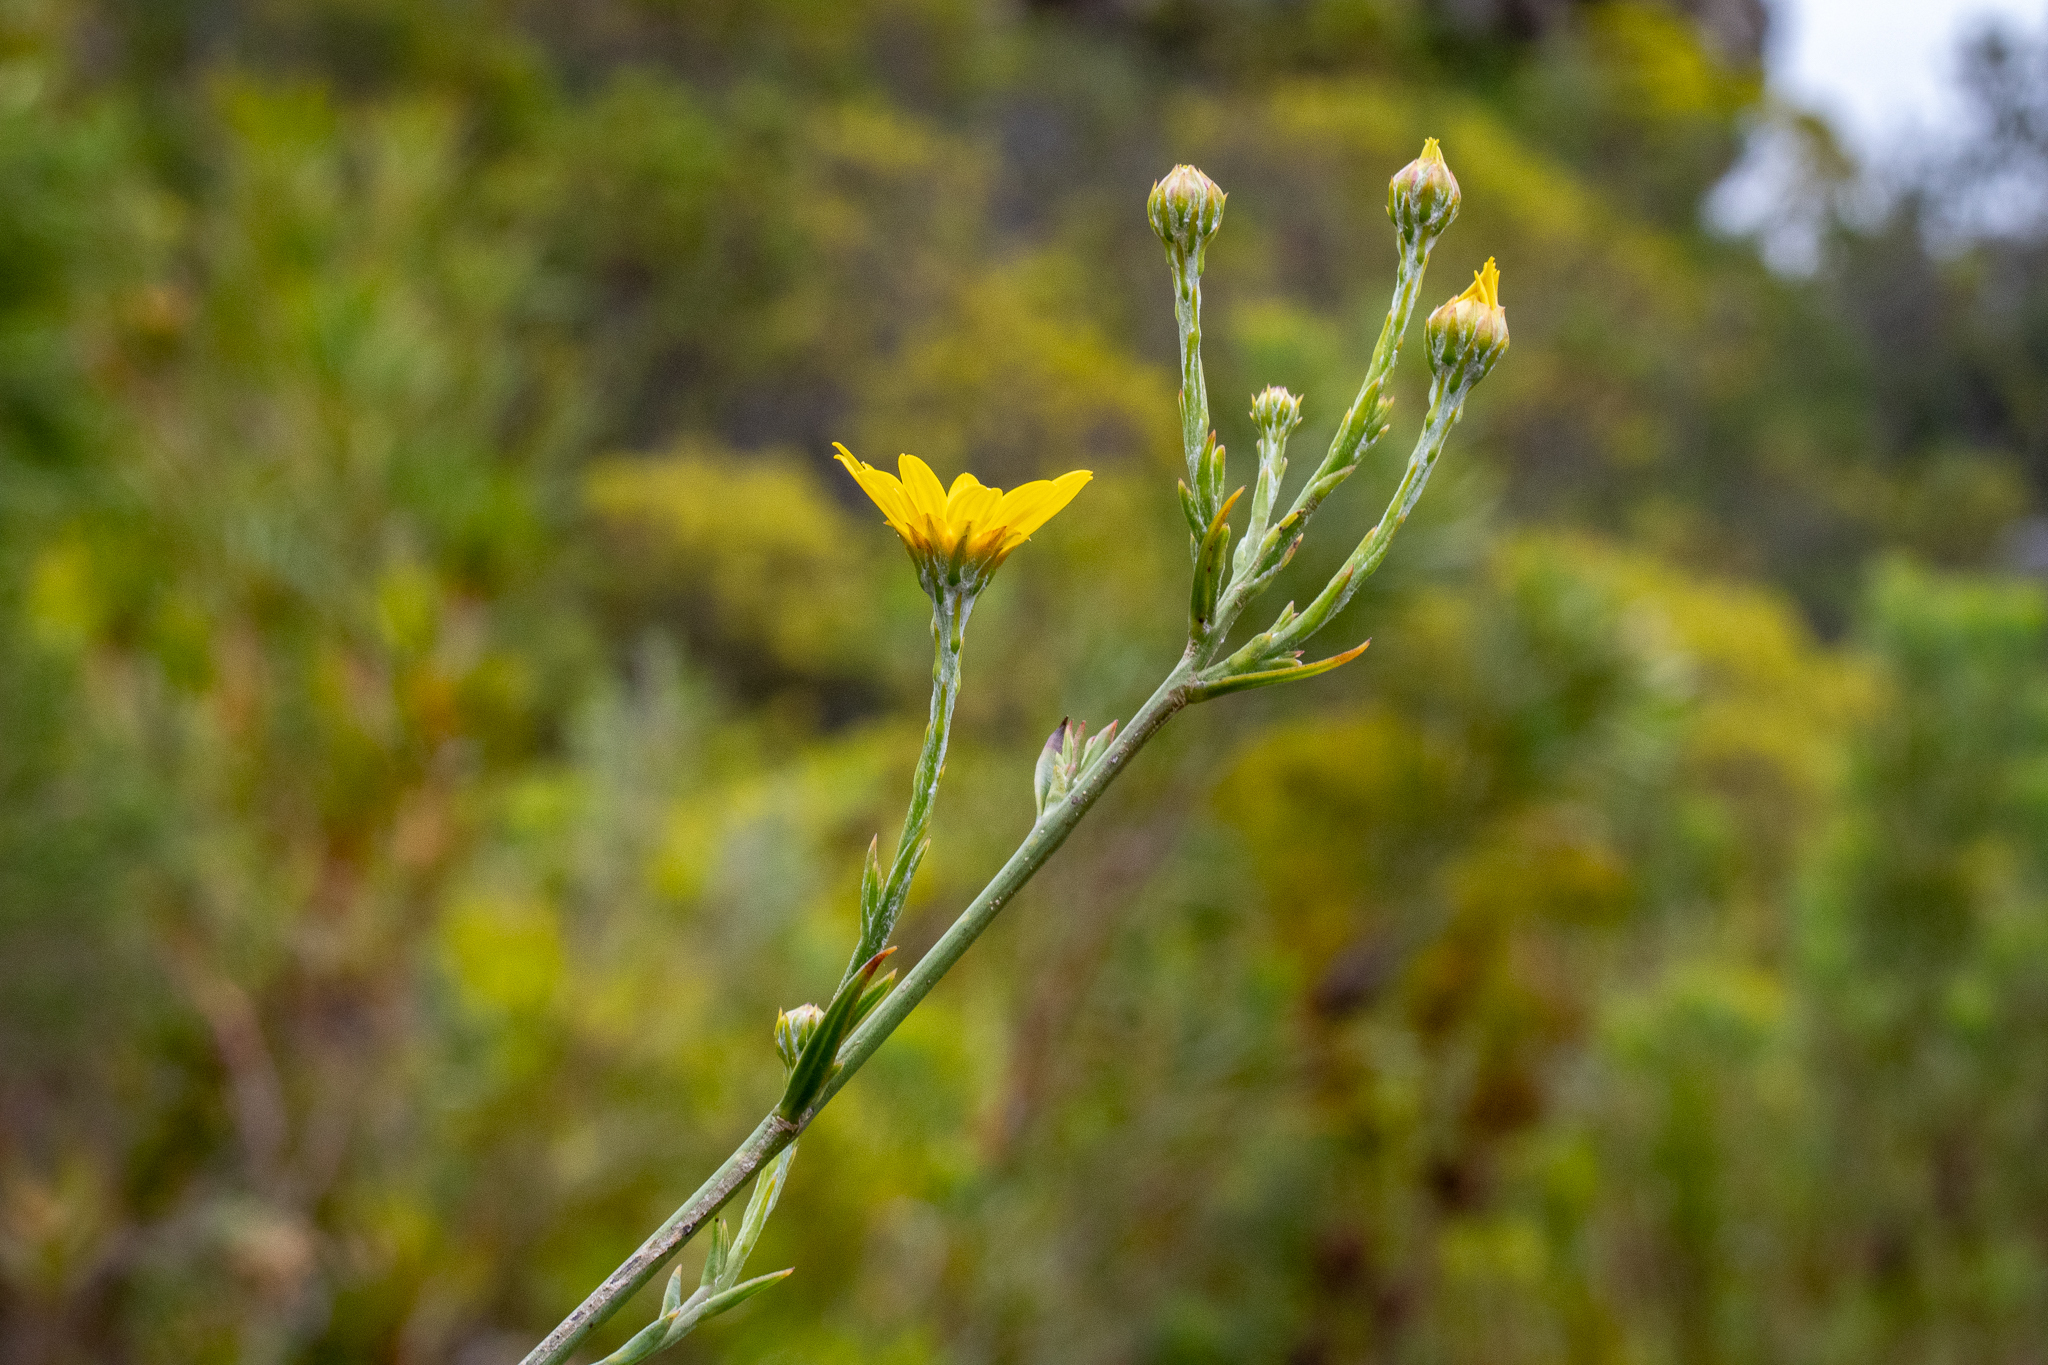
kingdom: Plantae
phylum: Tracheophyta
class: Magnoliopsida
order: Asterales
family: Asteraceae
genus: Osteospermum
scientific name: Osteospermum junceum
